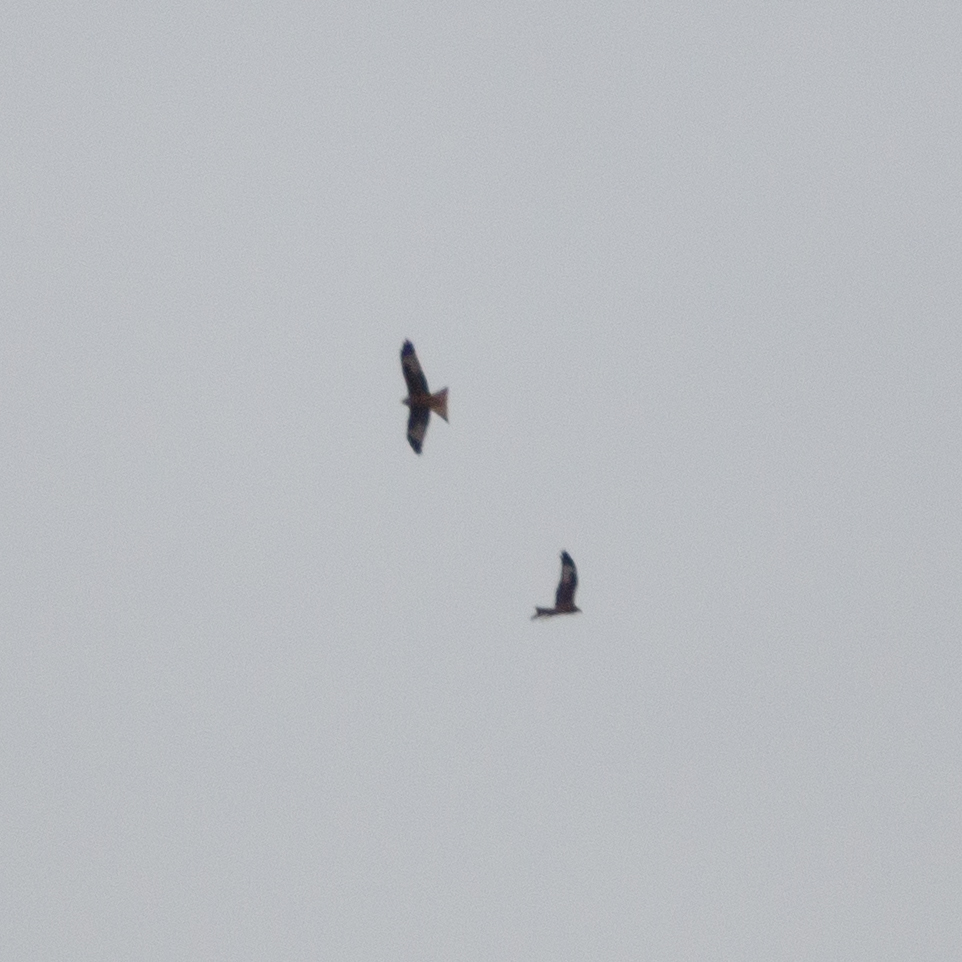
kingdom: Animalia
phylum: Chordata
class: Aves
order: Accipitriformes
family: Accipitridae
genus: Milvus
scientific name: Milvus milvus
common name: Red kite
